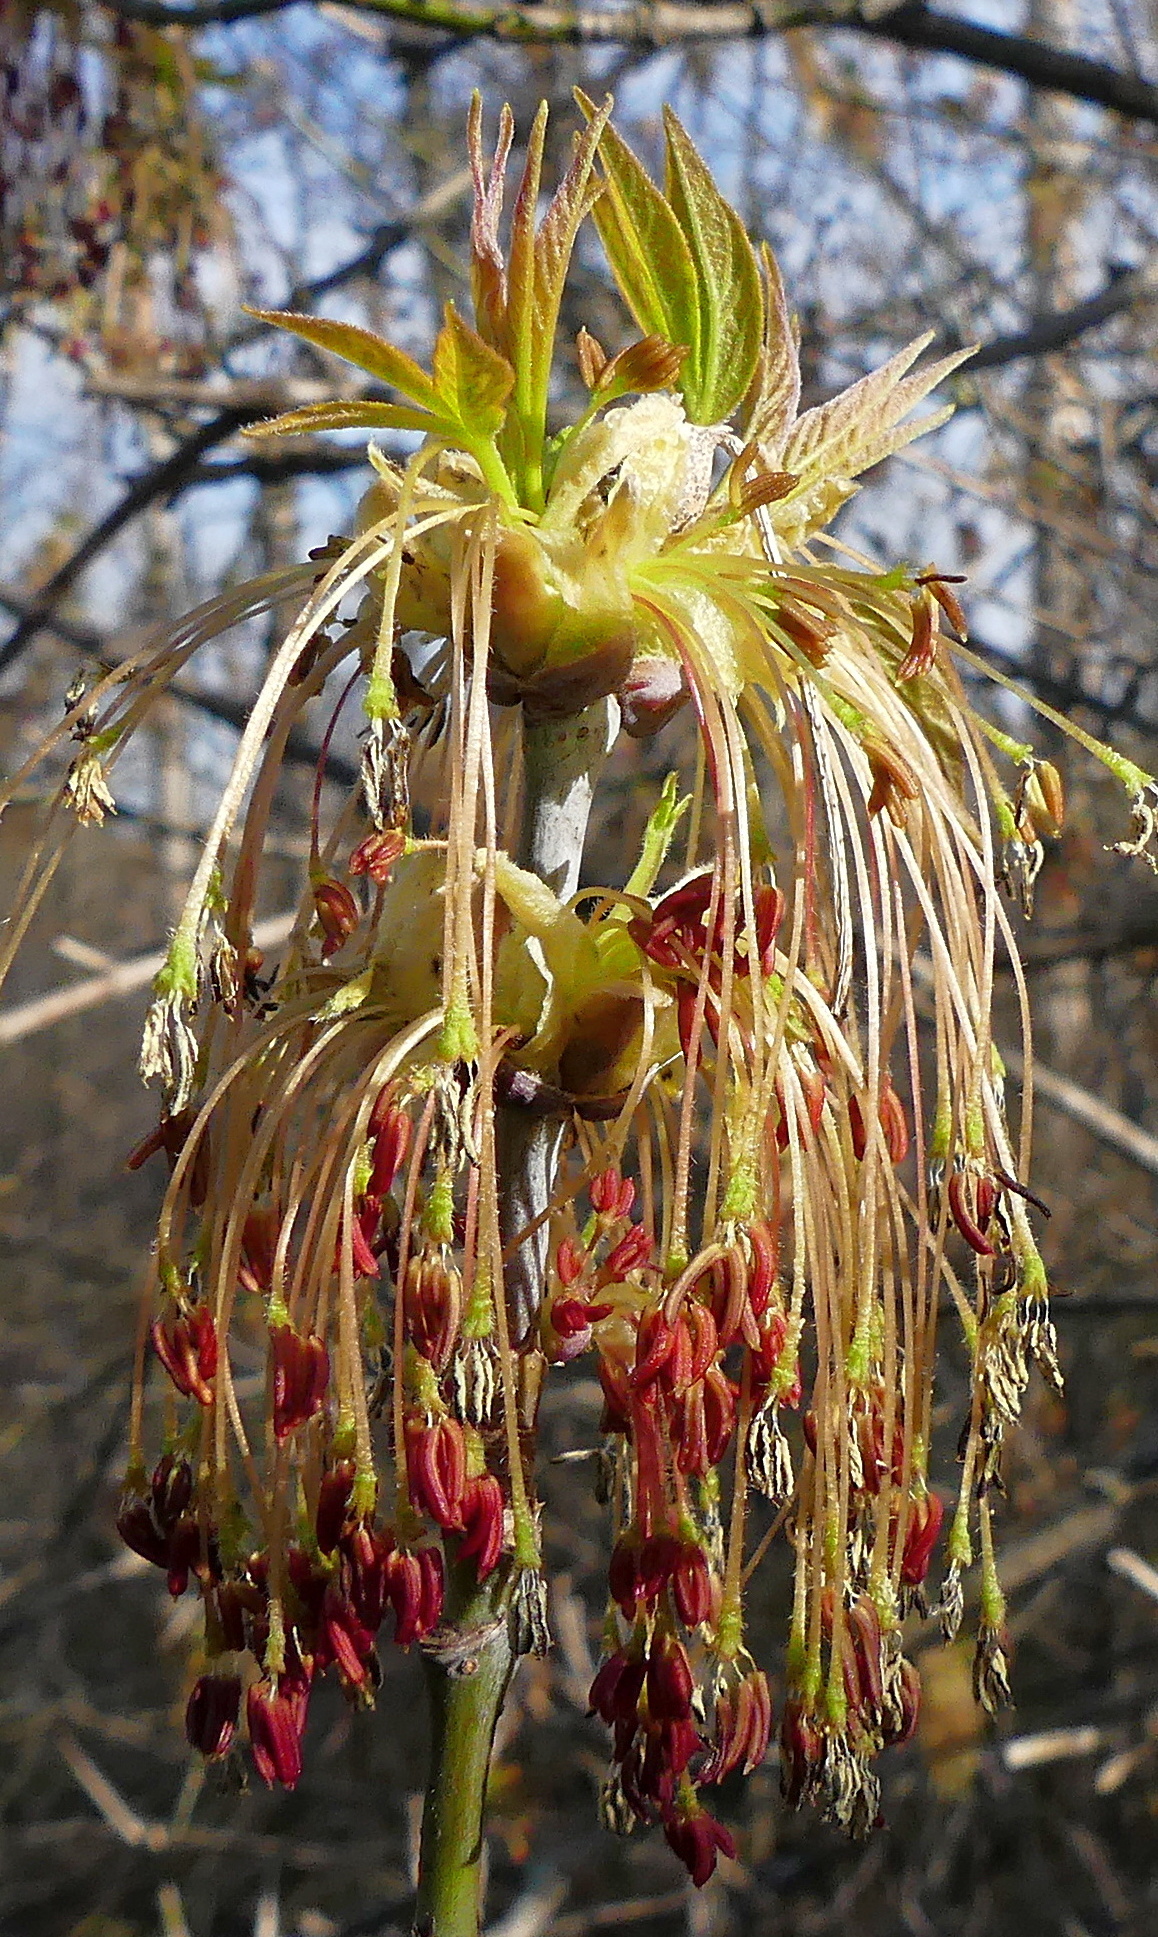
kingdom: Plantae
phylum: Tracheophyta
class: Magnoliopsida
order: Sapindales
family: Sapindaceae
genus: Acer
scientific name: Acer negundo
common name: Ashleaf maple
